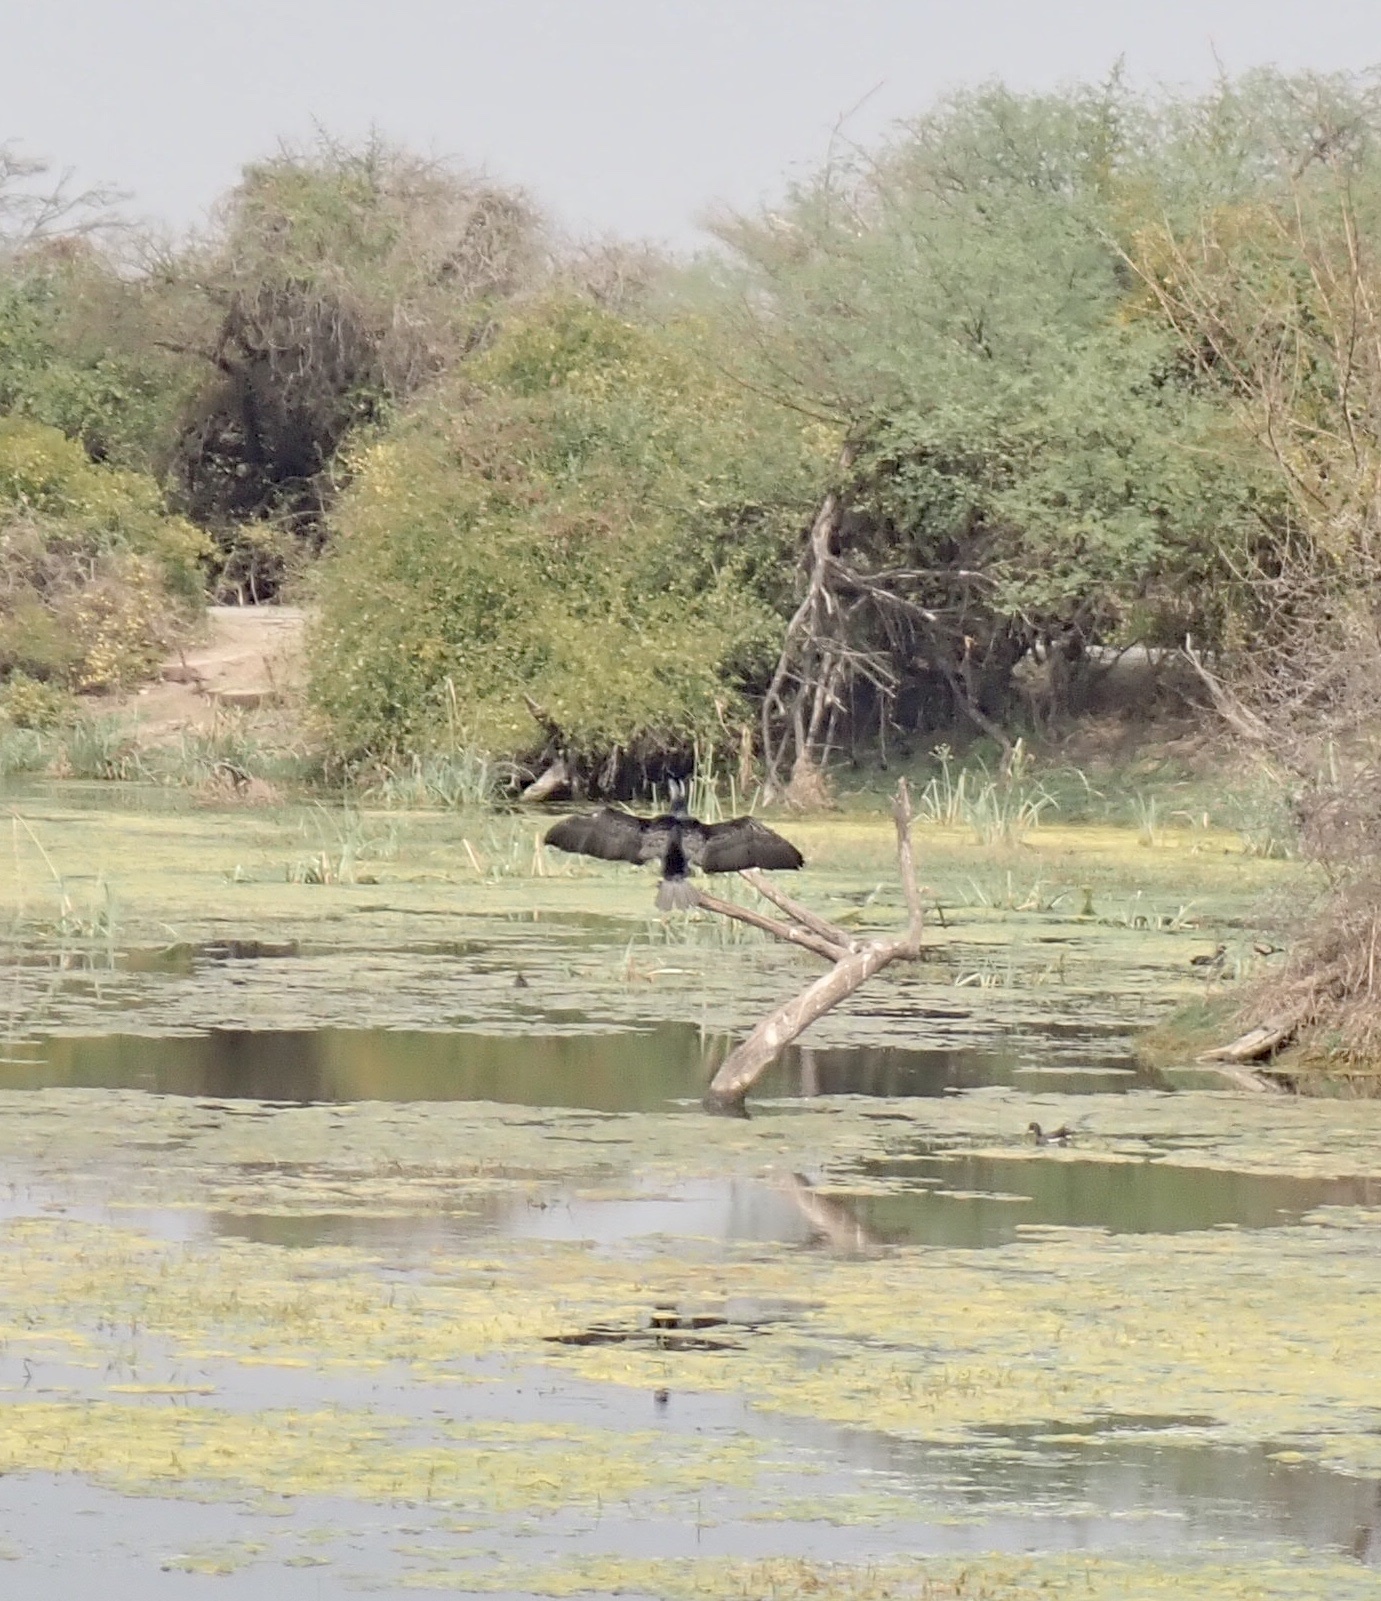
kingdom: Animalia
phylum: Chordata
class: Aves
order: Suliformes
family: Phalacrocoracidae
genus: Phalacrocorax
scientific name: Phalacrocorax carbo
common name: Great cormorant
